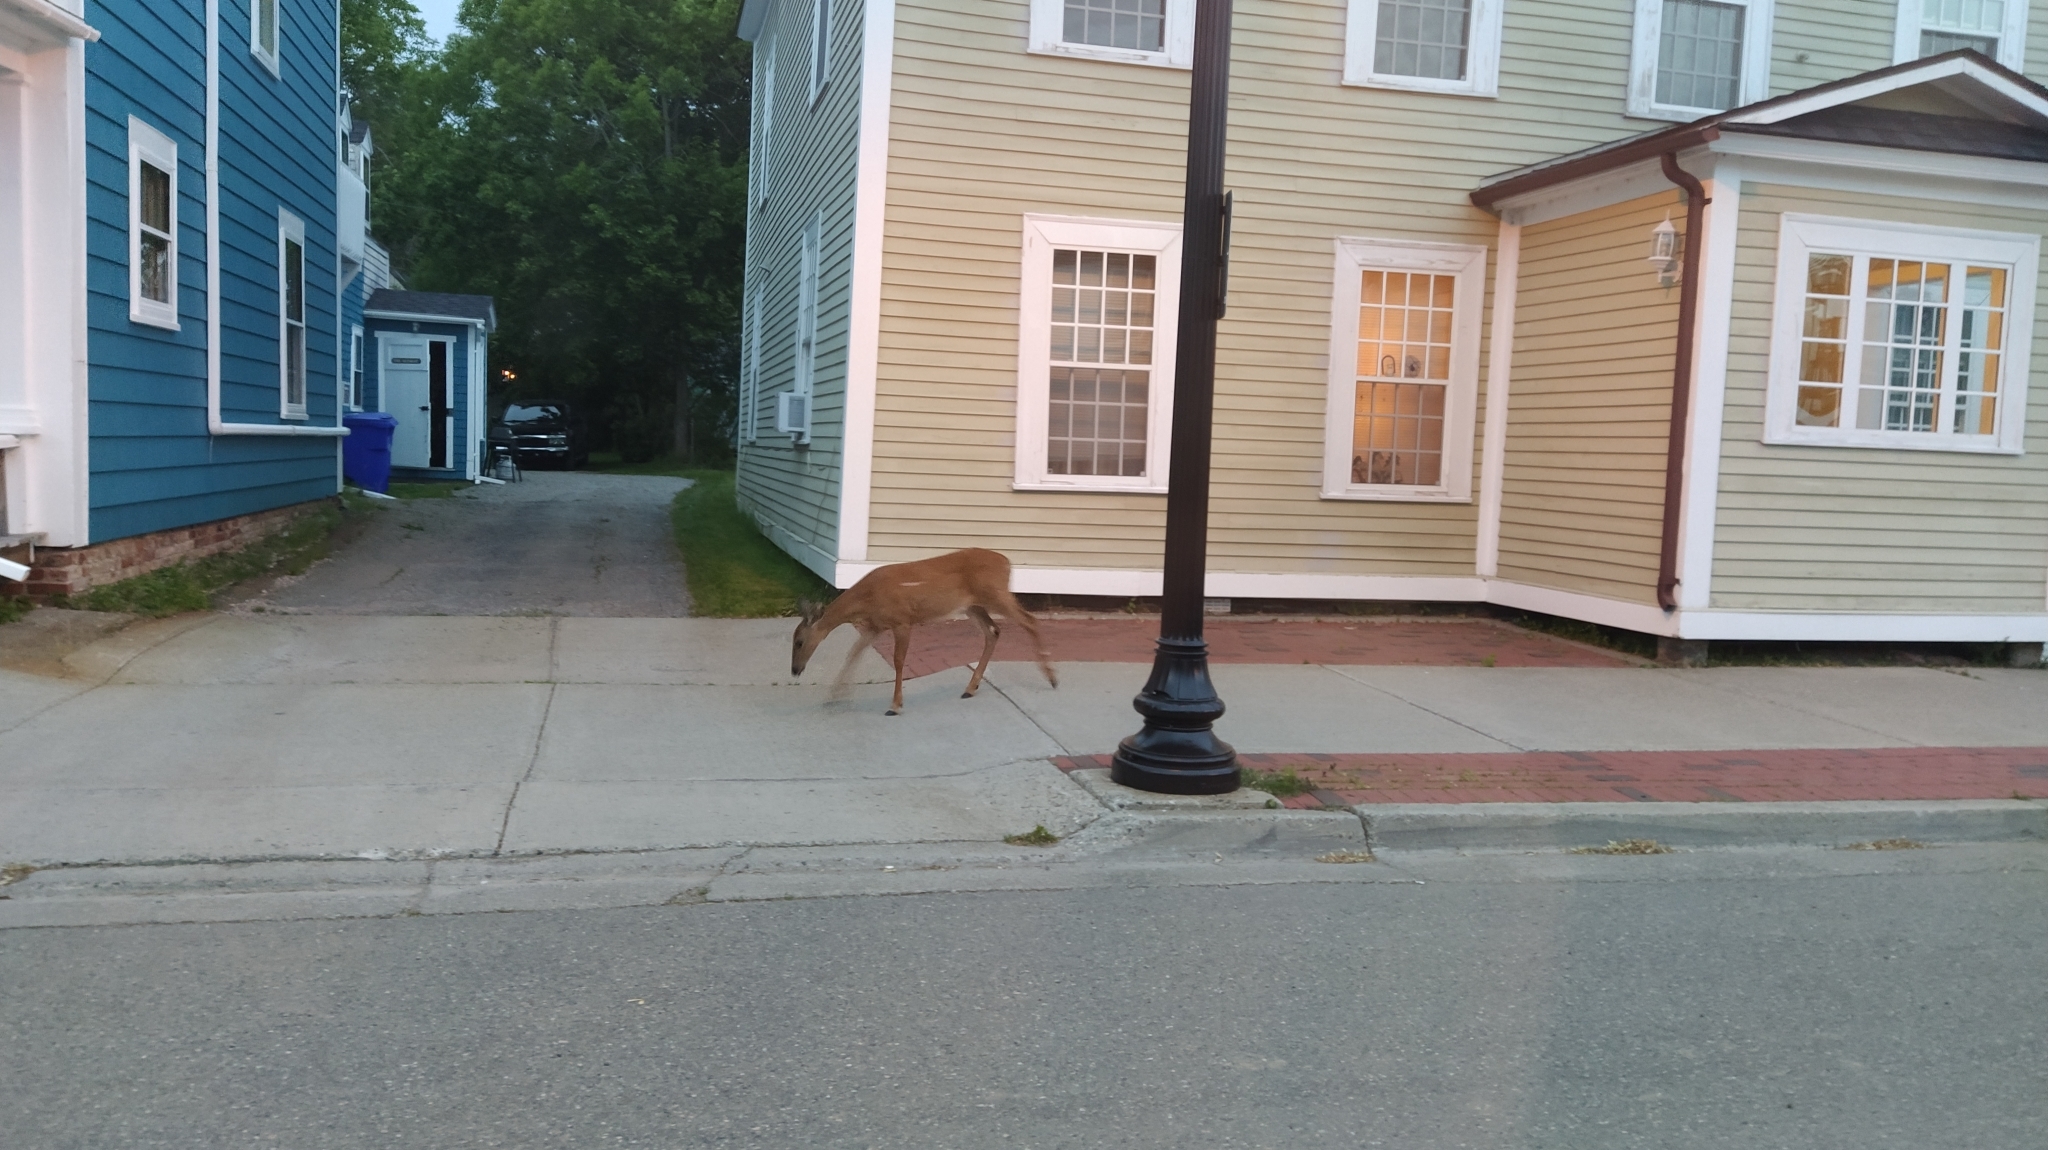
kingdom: Animalia
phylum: Chordata
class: Mammalia
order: Artiodactyla
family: Cervidae
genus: Odocoileus
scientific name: Odocoileus virginianus
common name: White-tailed deer
